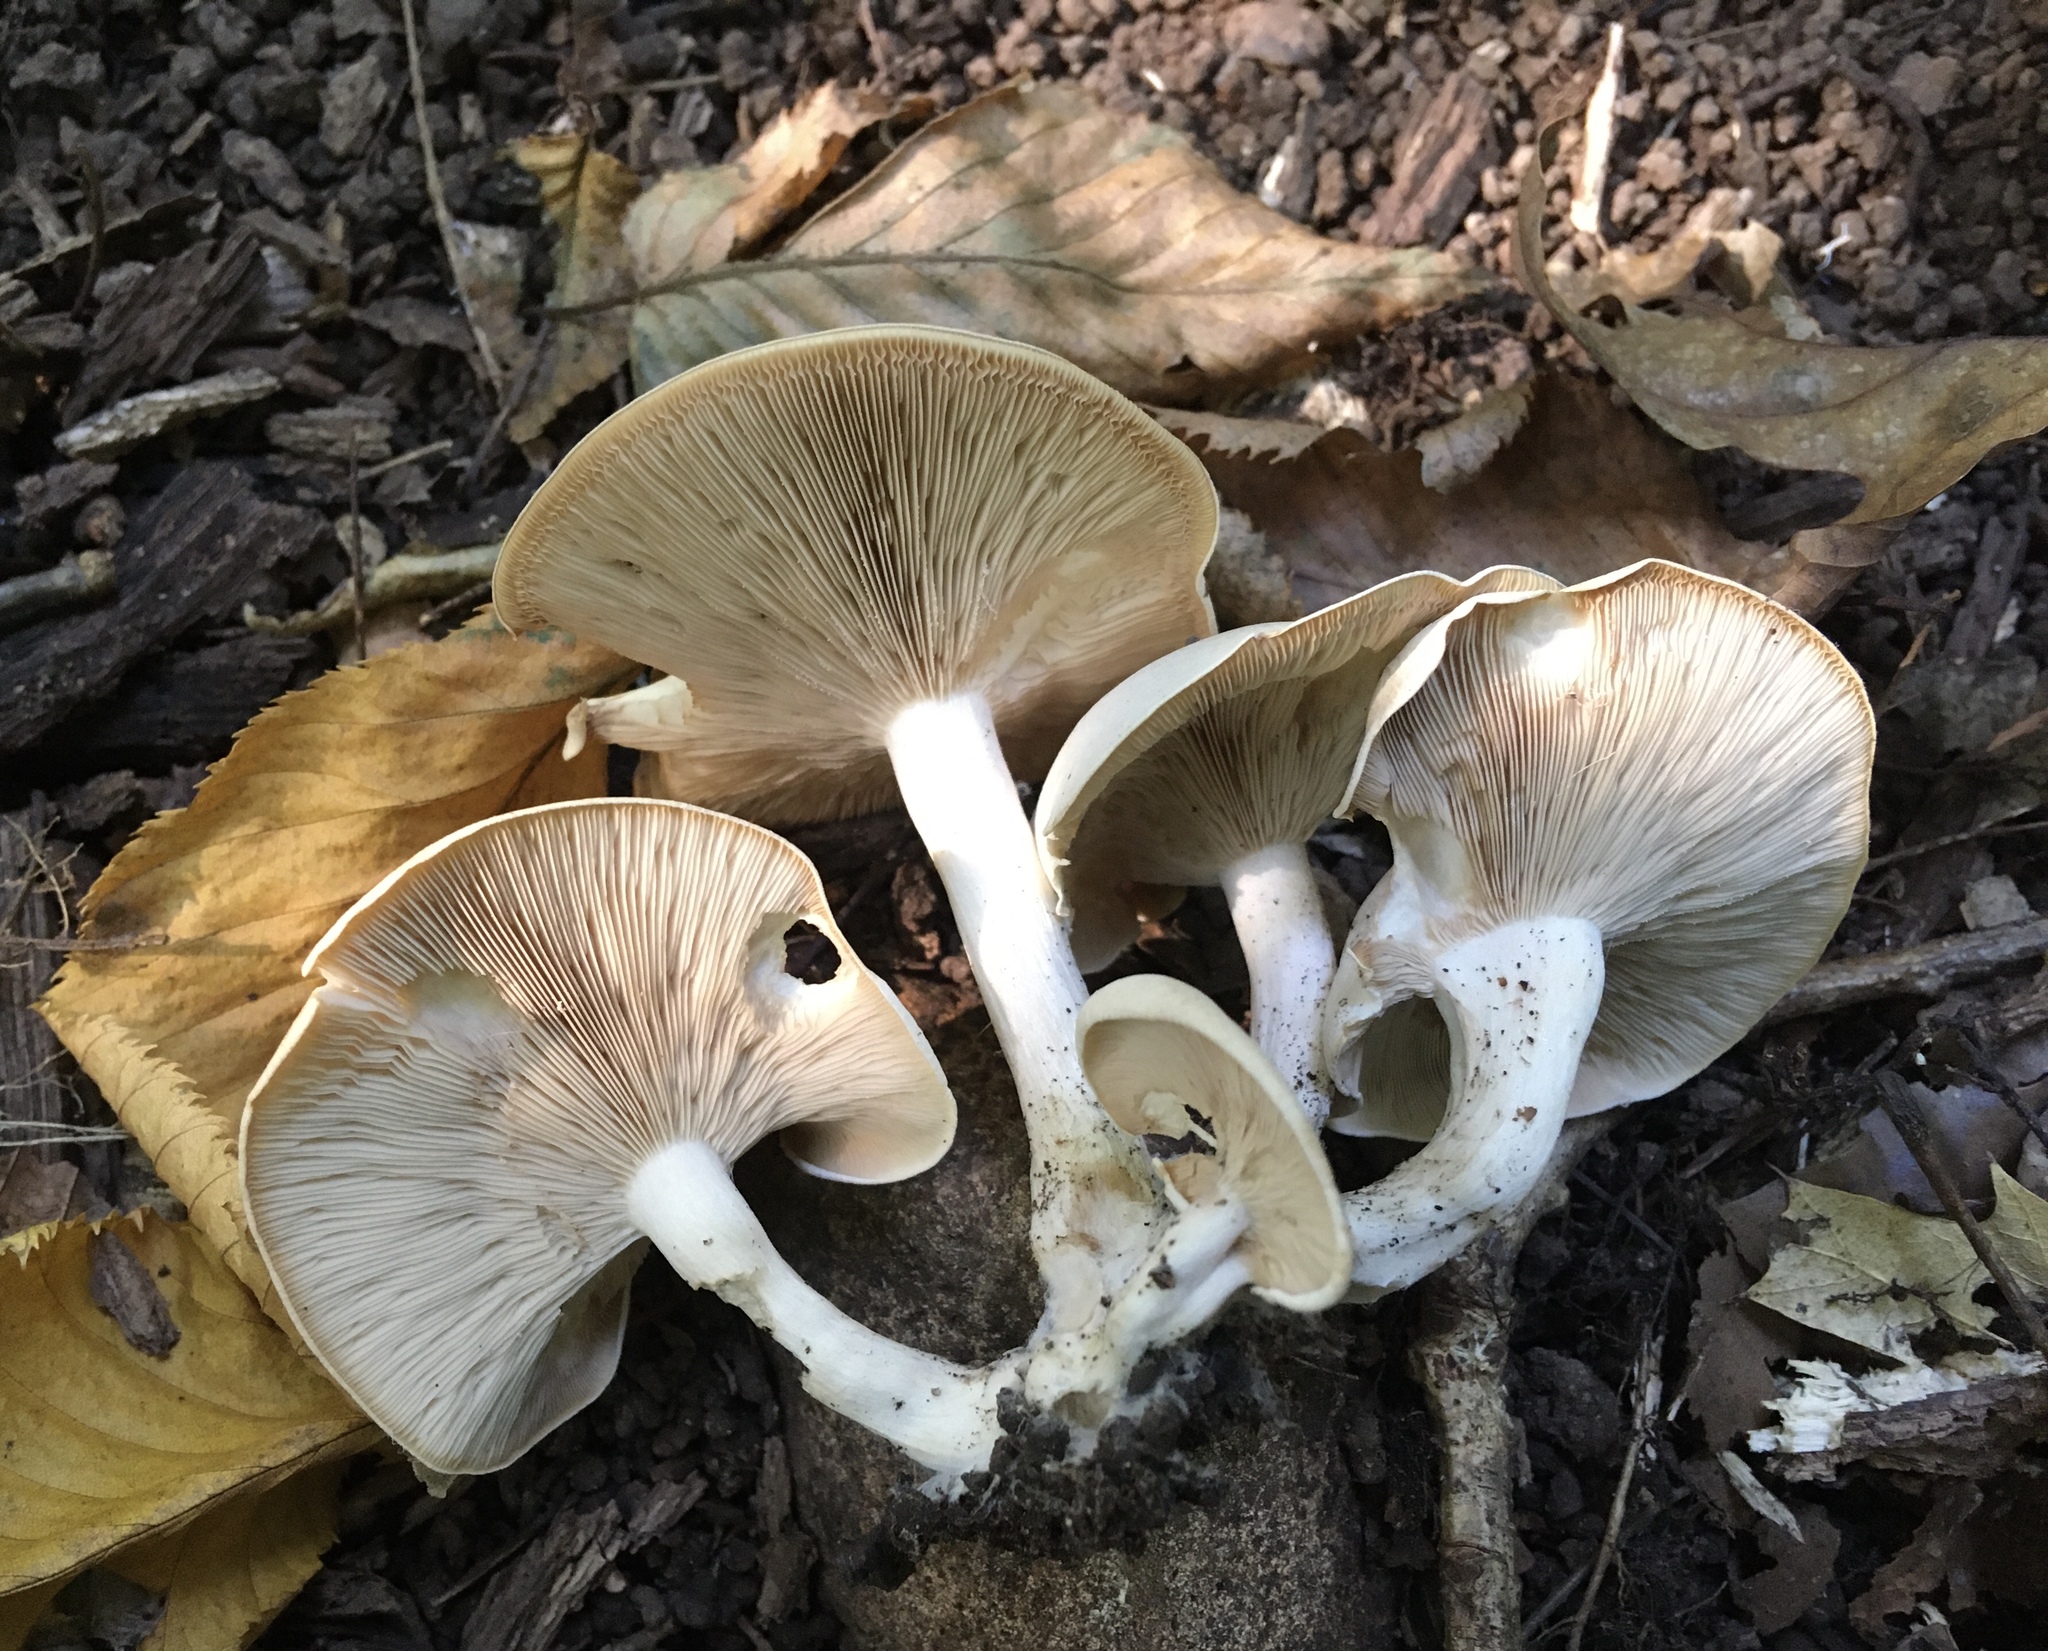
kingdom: Fungi
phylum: Basidiomycota
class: Agaricomycetes
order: Agaricales
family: Tricholomataceae
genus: Lepista
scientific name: Lepista subconnexa
